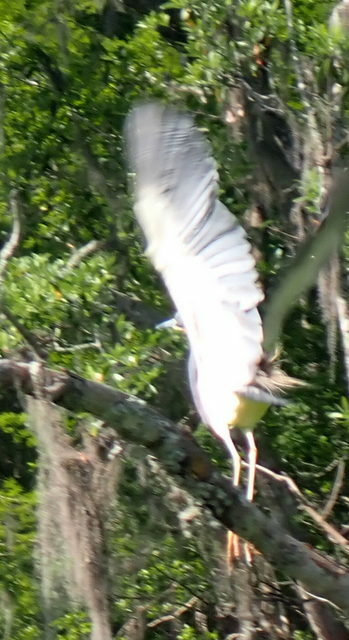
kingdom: Animalia
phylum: Chordata
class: Aves
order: Pelecaniformes
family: Ardeidae
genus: Egretta
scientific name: Egretta tricolor
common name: Tricolored heron
